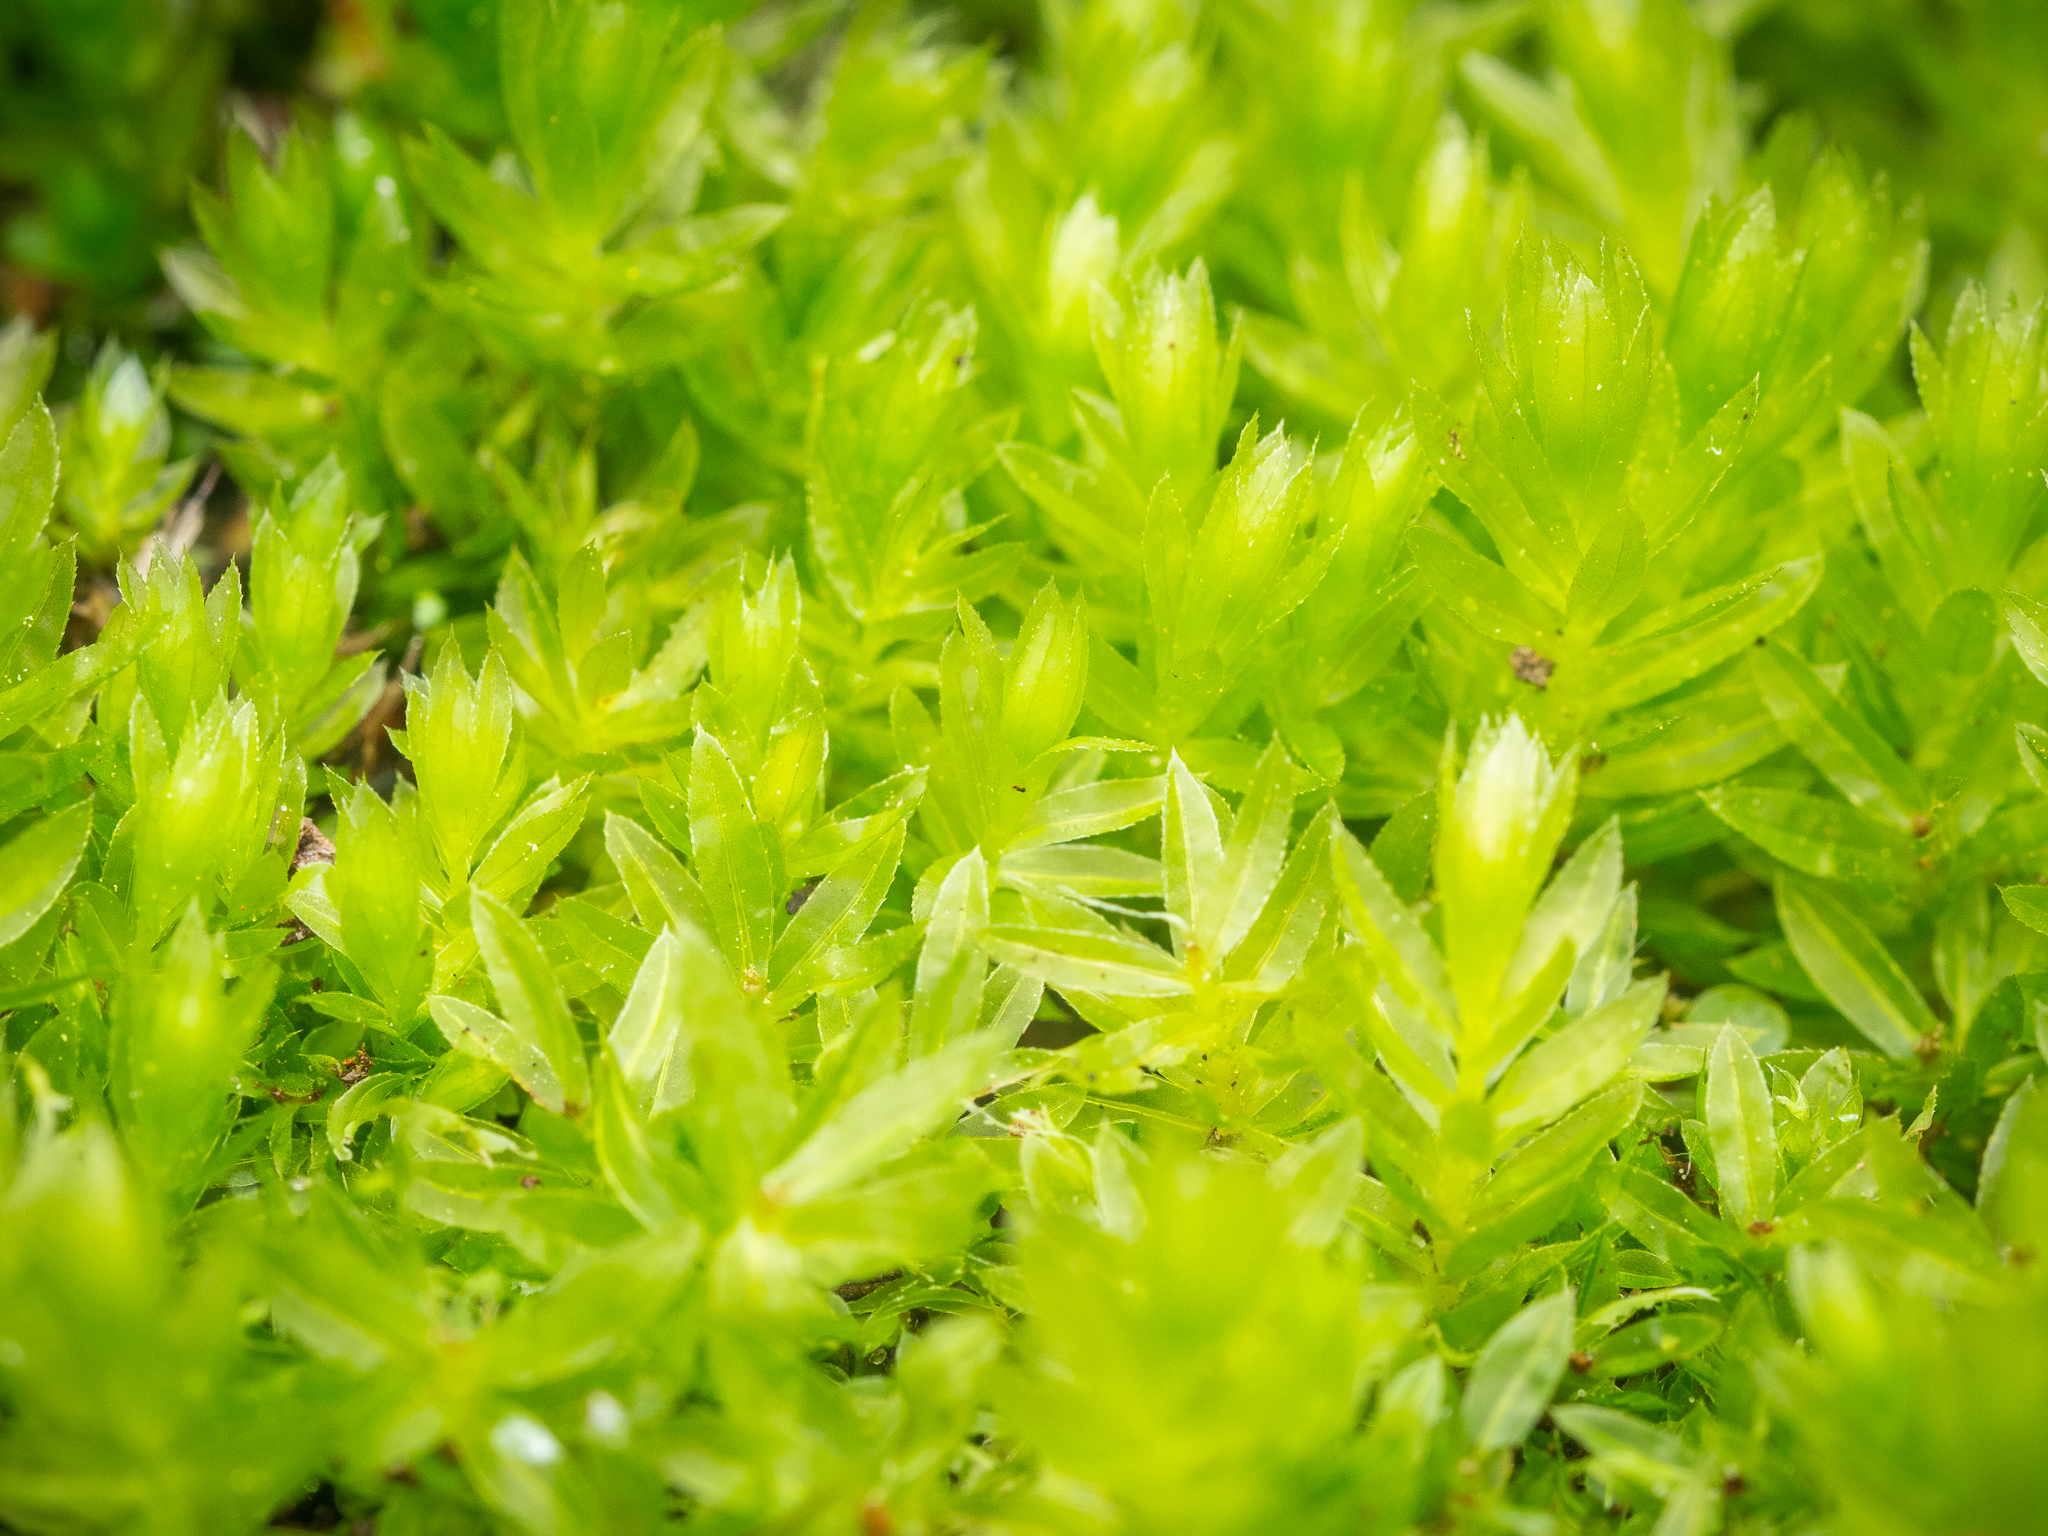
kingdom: Plantae
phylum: Bryophyta
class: Bryopsida
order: Bryales
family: Mniaceae
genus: Mnium
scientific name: Mnium hornum
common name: Swan's-neck leafy moss
